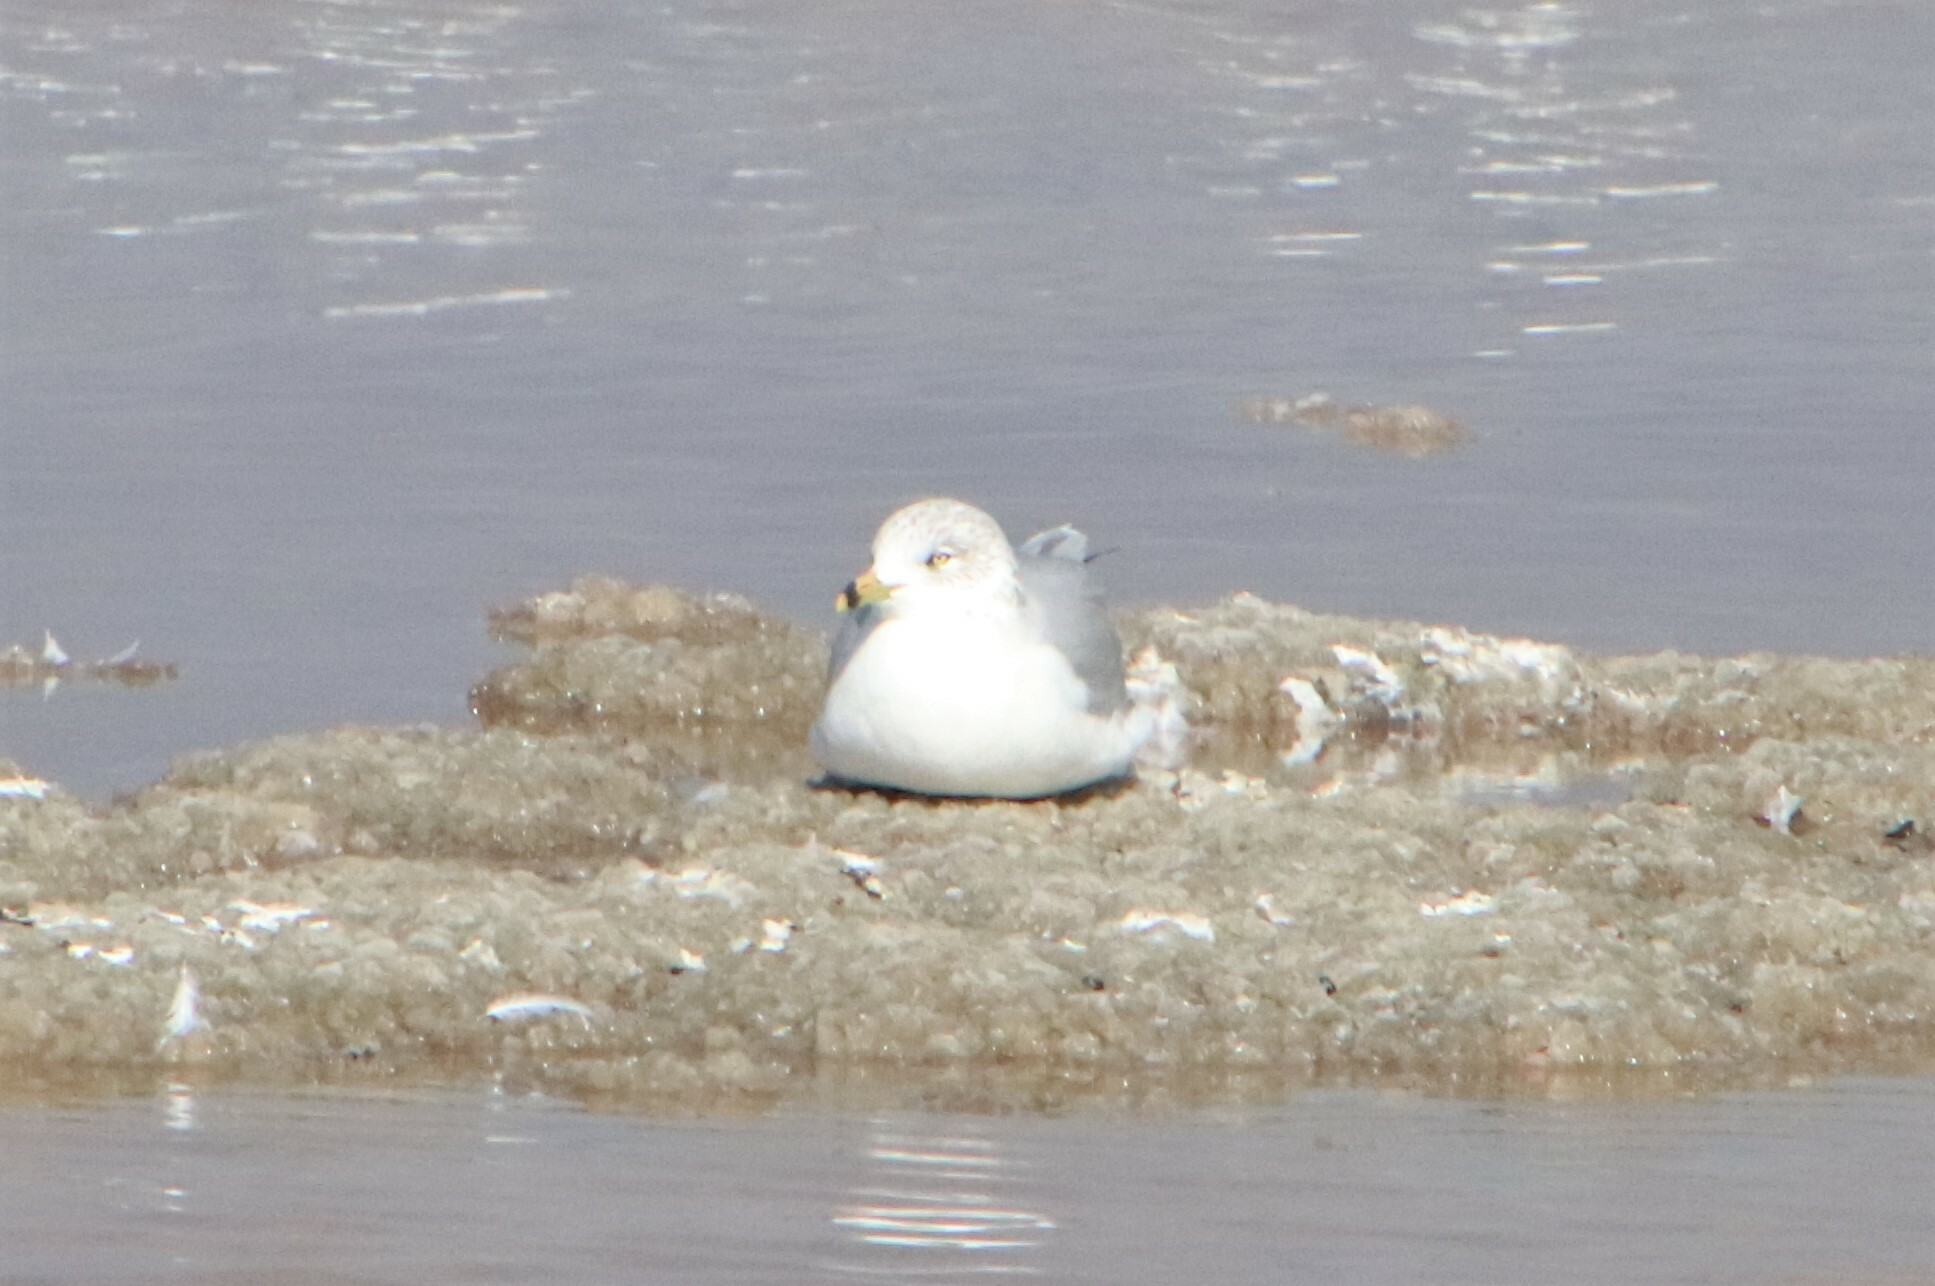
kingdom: Animalia
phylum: Chordata
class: Aves
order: Charadriiformes
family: Laridae
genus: Larus
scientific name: Larus delawarensis
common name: Ring-billed gull
